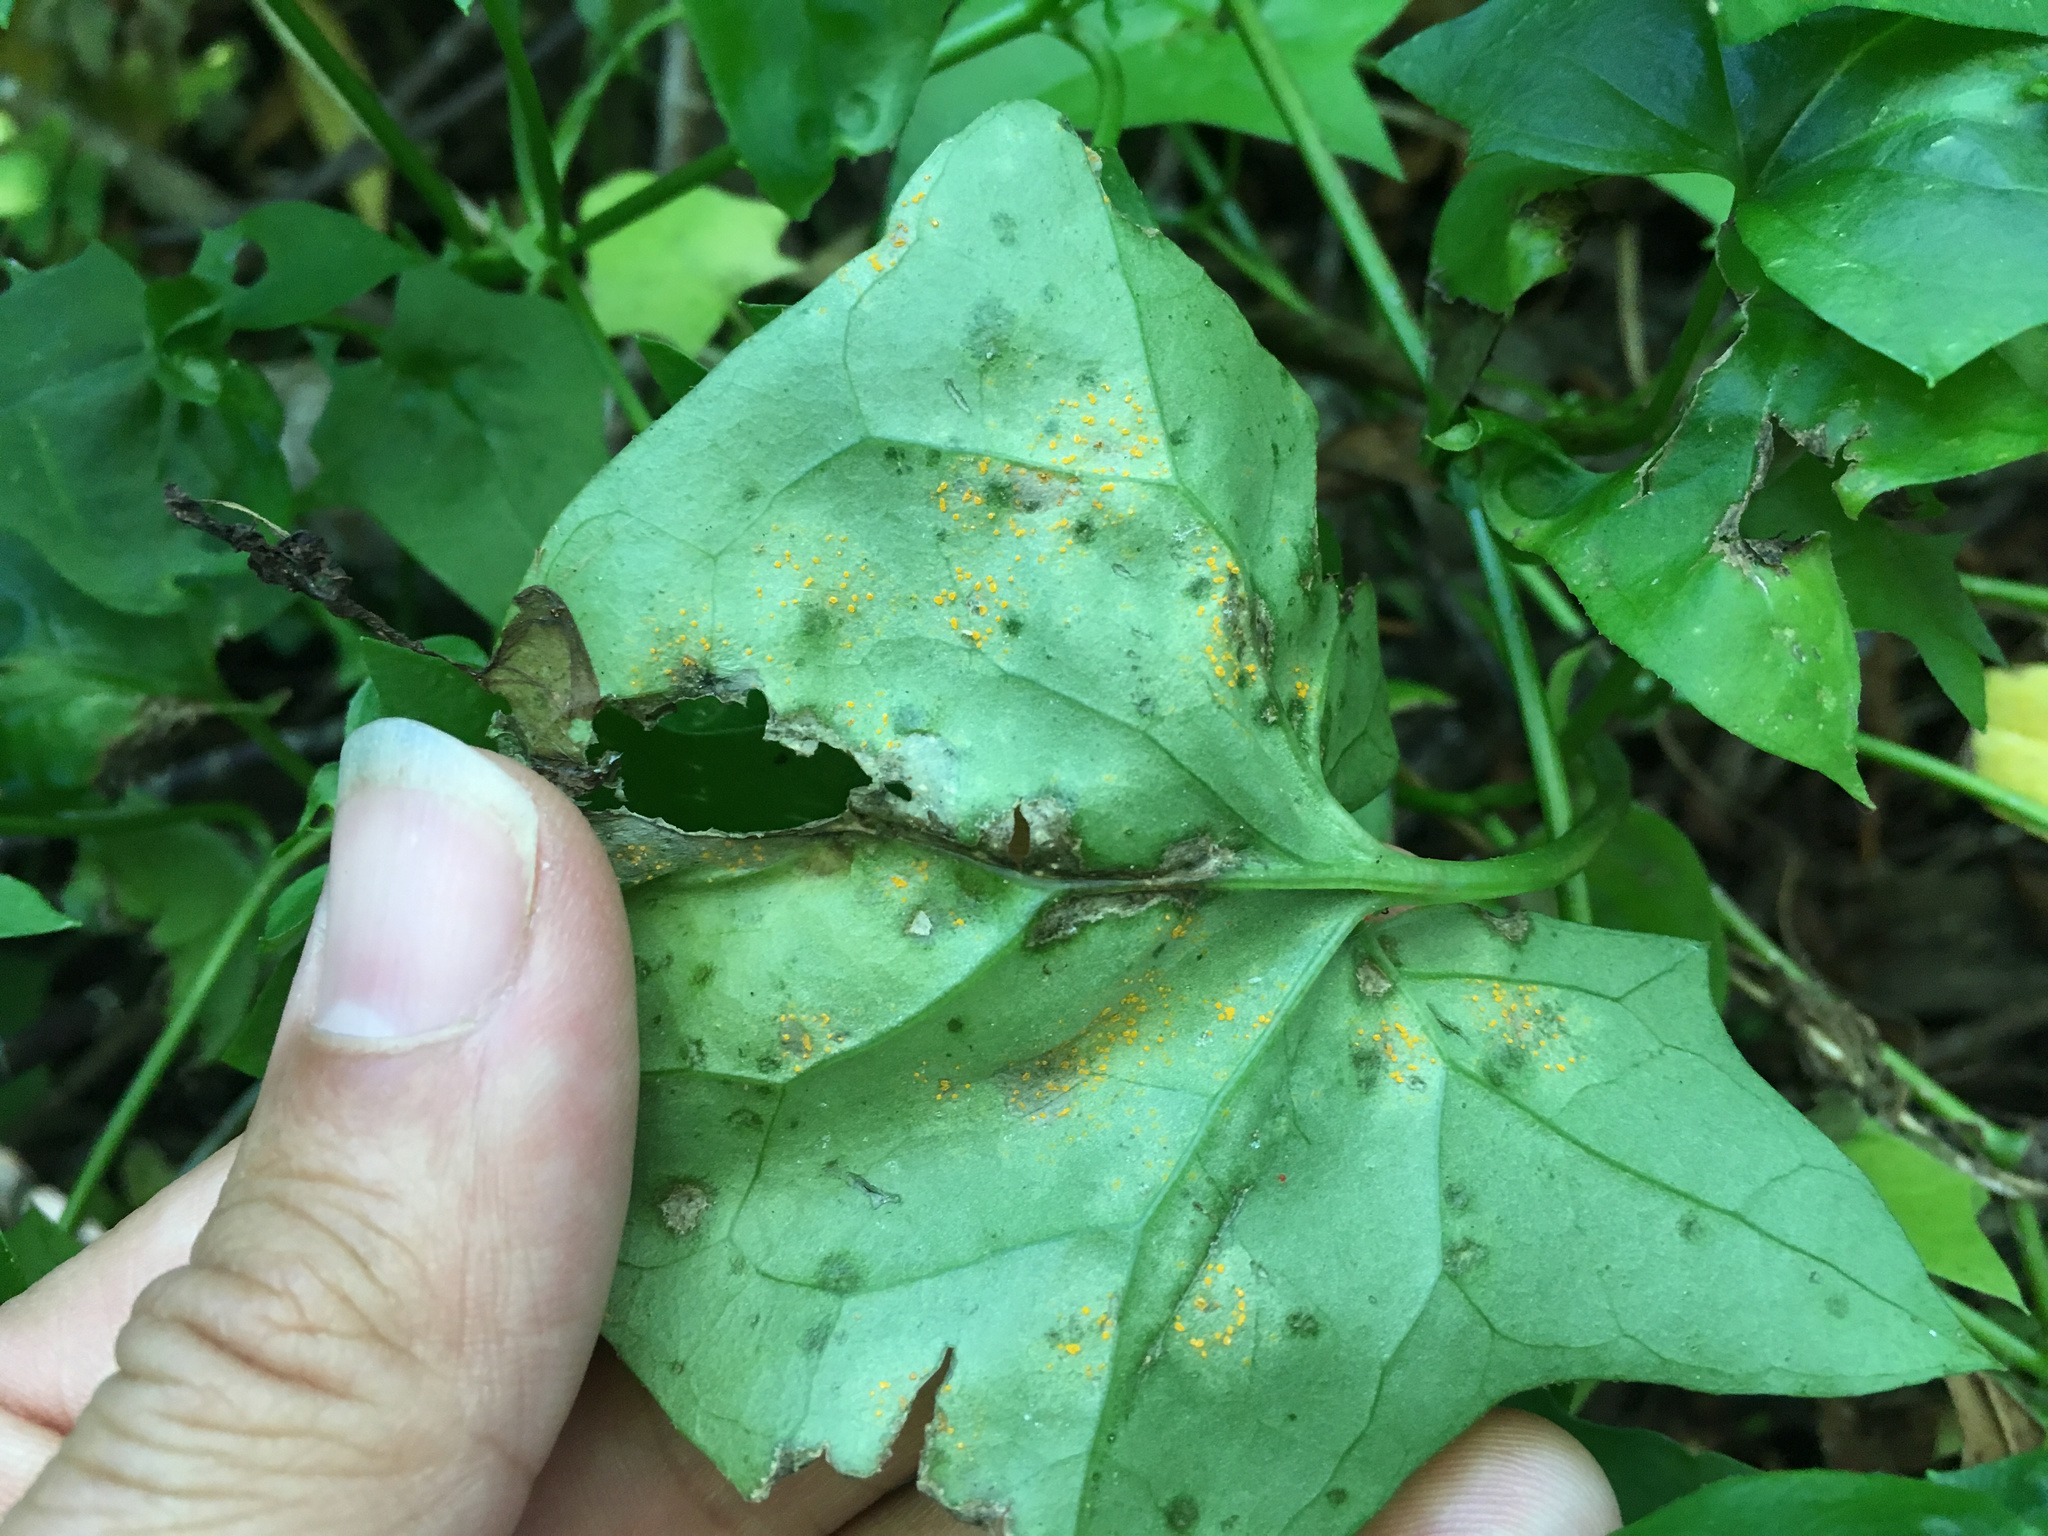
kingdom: Fungi
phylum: Basidiomycota
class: Pucciniomycetes
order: Pucciniales
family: Coleosporiaceae
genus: Coleosporium
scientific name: Coleosporium tussilaginis
